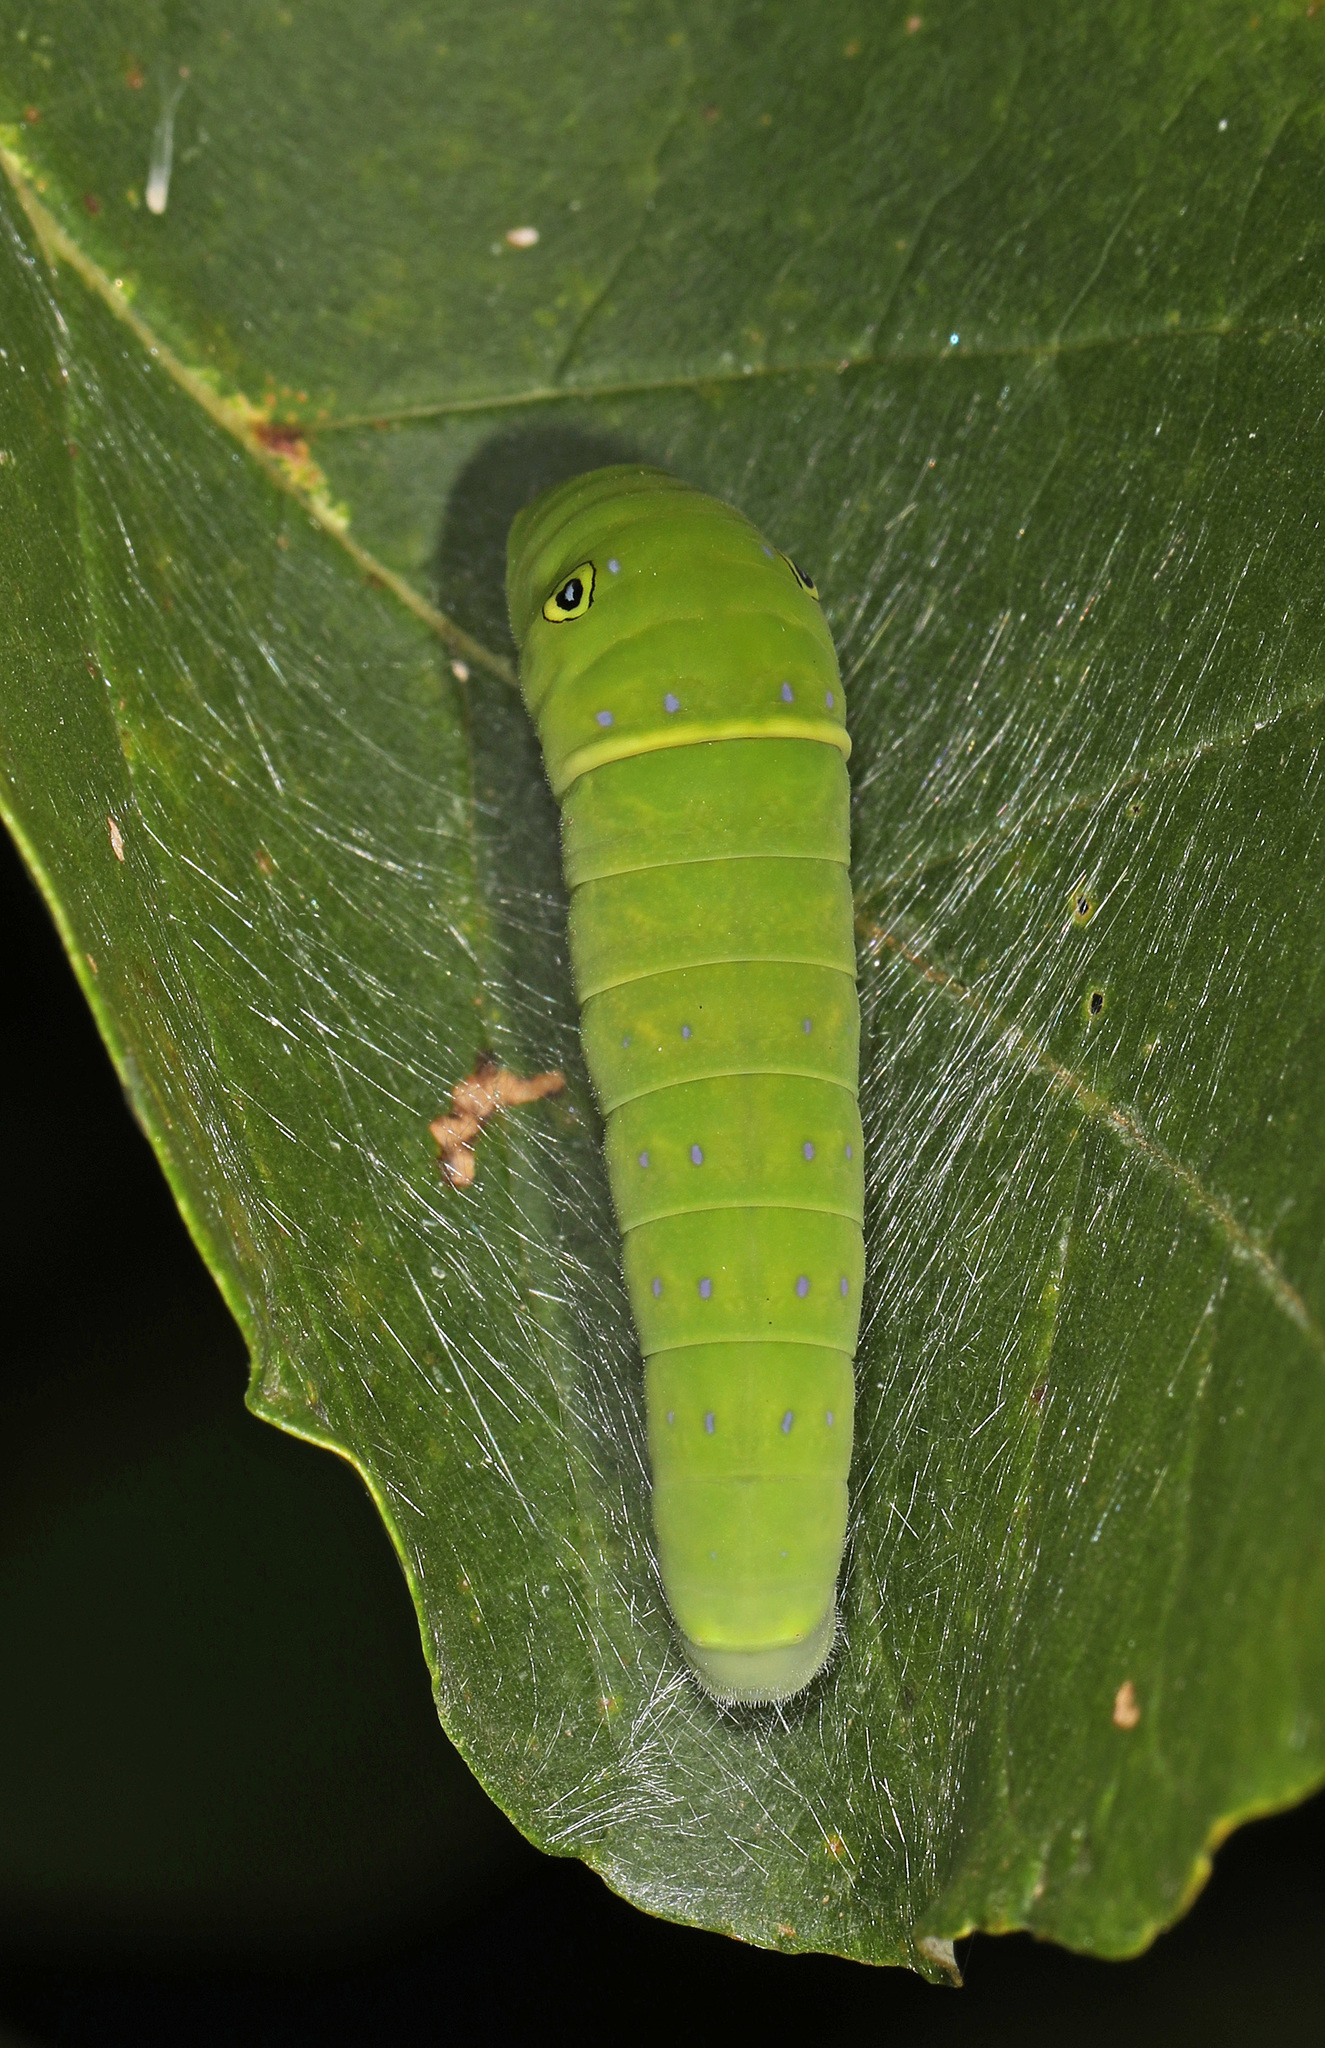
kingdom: Animalia
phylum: Arthropoda
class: Insecta
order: Lepidoptera
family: Papilionidae
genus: Papilio
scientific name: Papilio glaucus
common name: Tiger swallowtail
